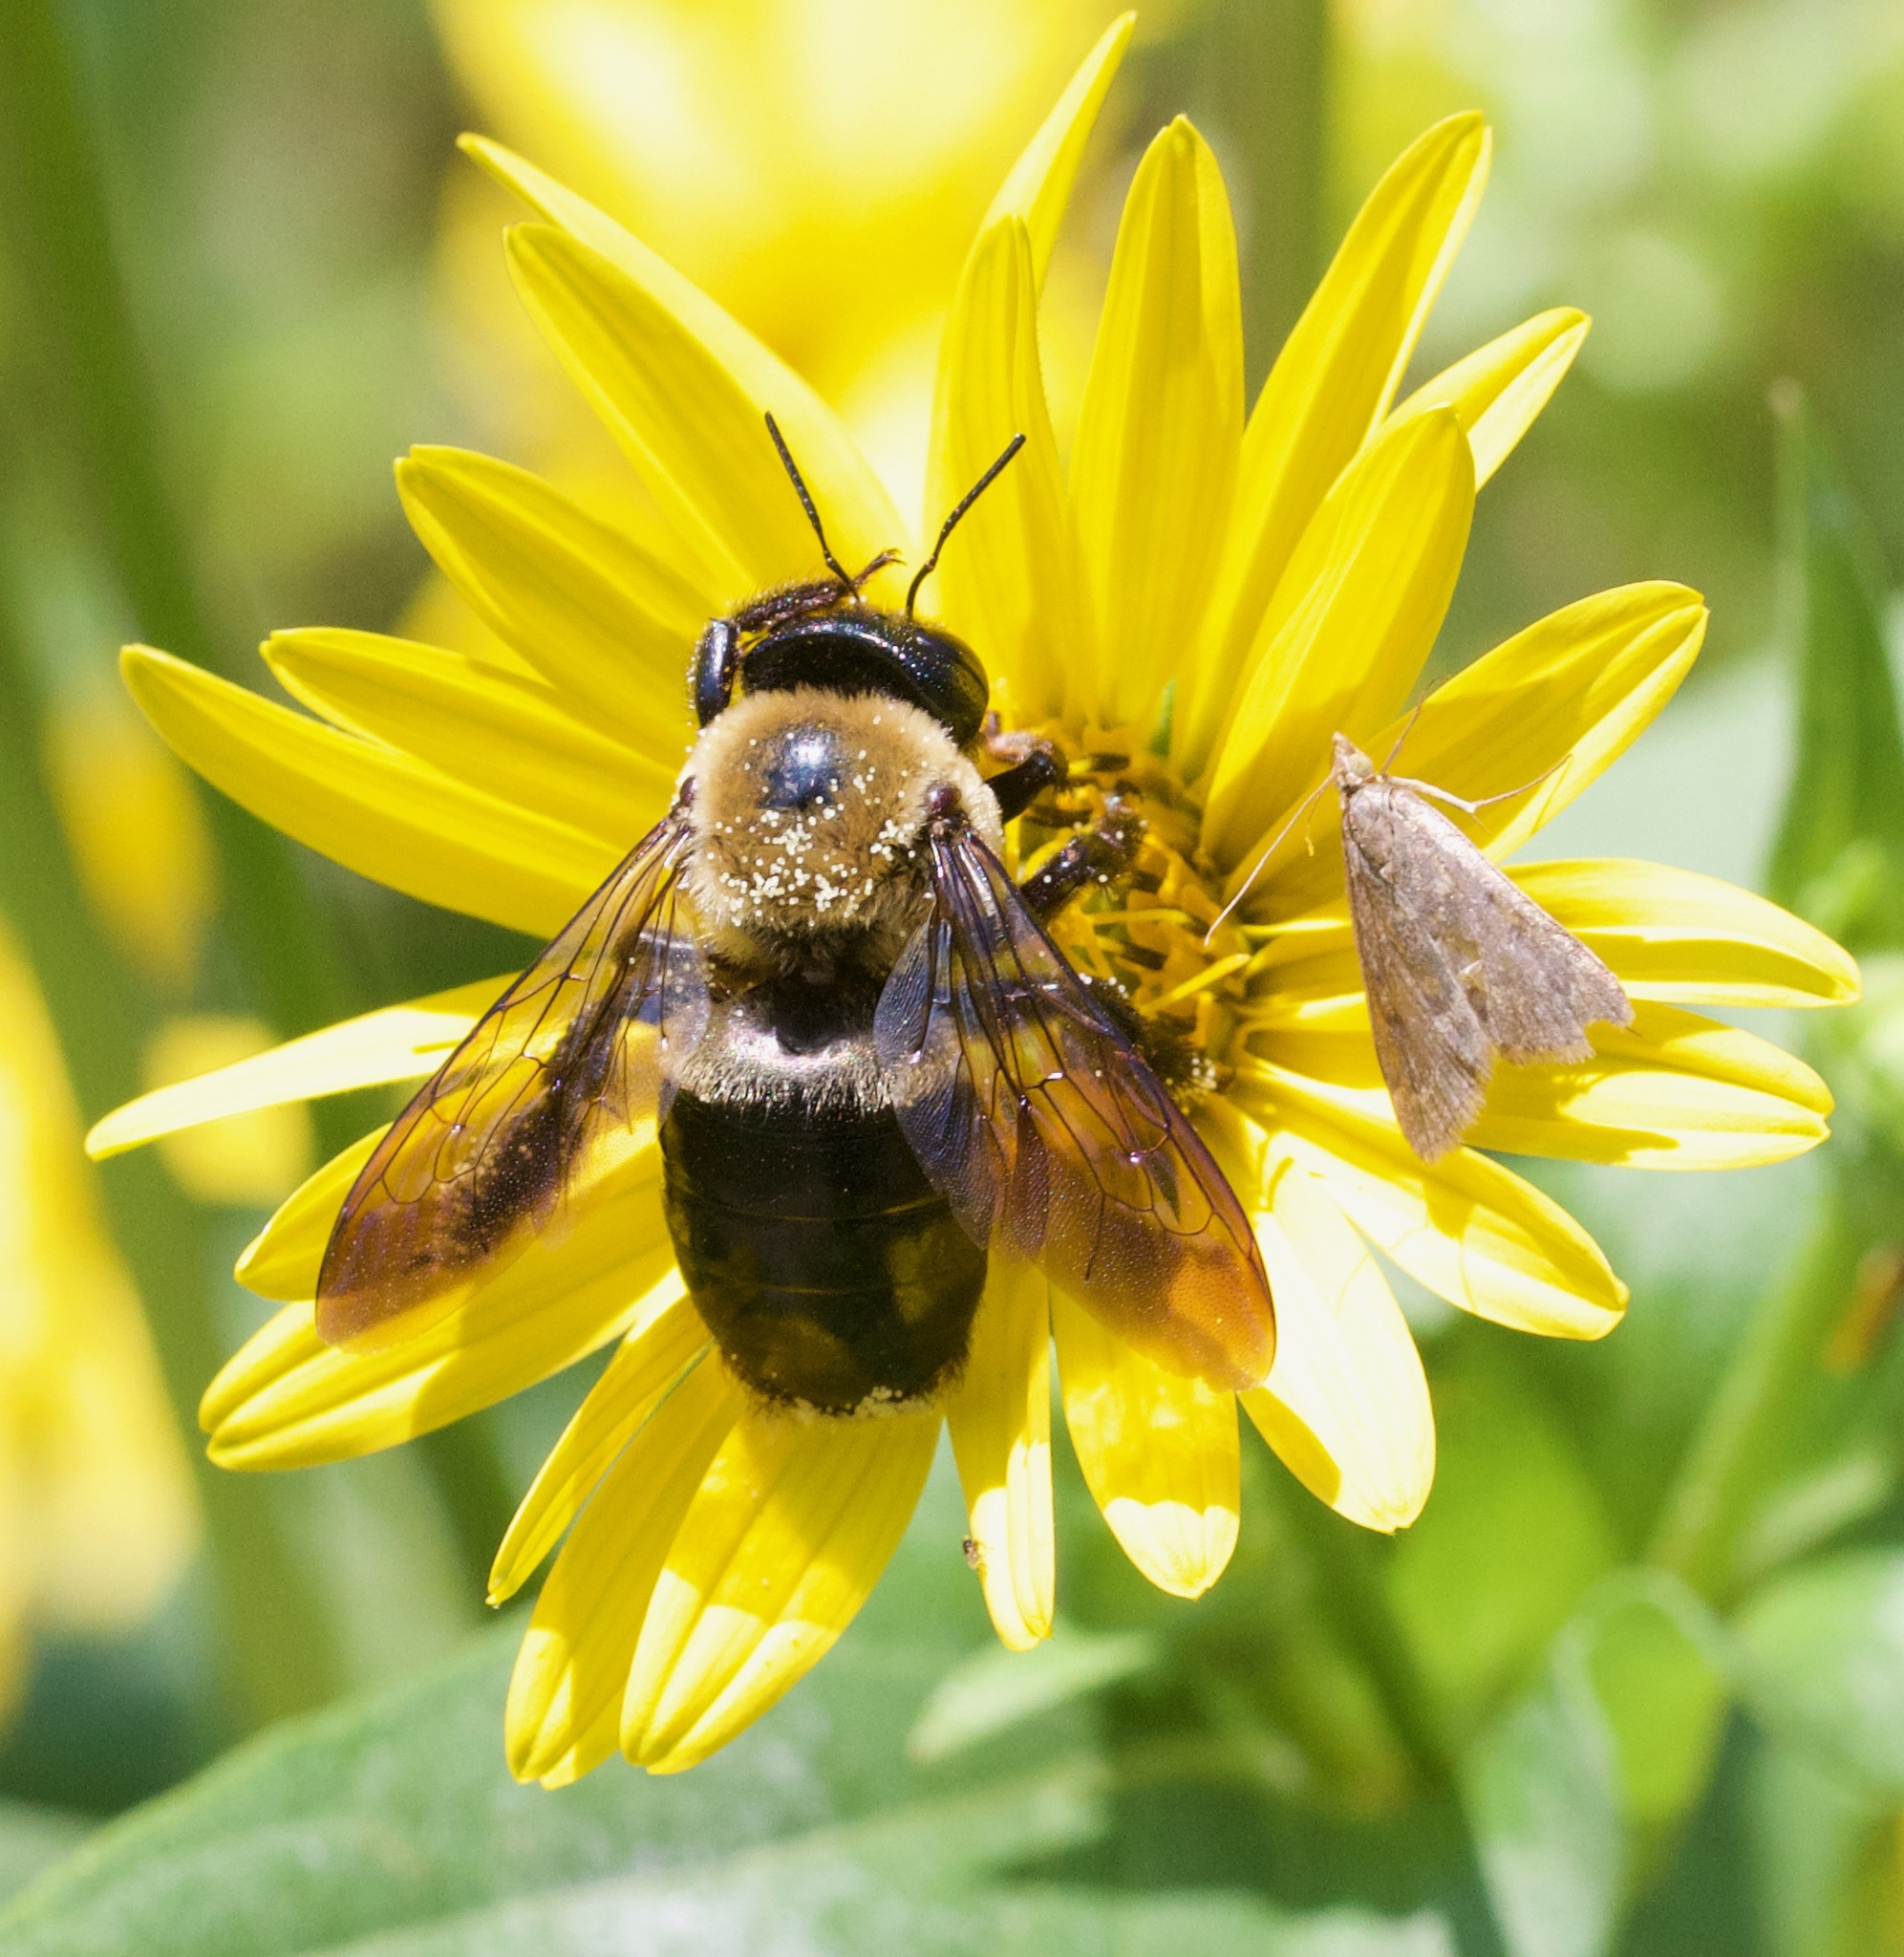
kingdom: Animalia
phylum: Arthropoda
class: Insecta
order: Hymenoptera
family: Apidae
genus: Xylocopa
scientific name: Xylocopa virginica
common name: Carpenter bee
